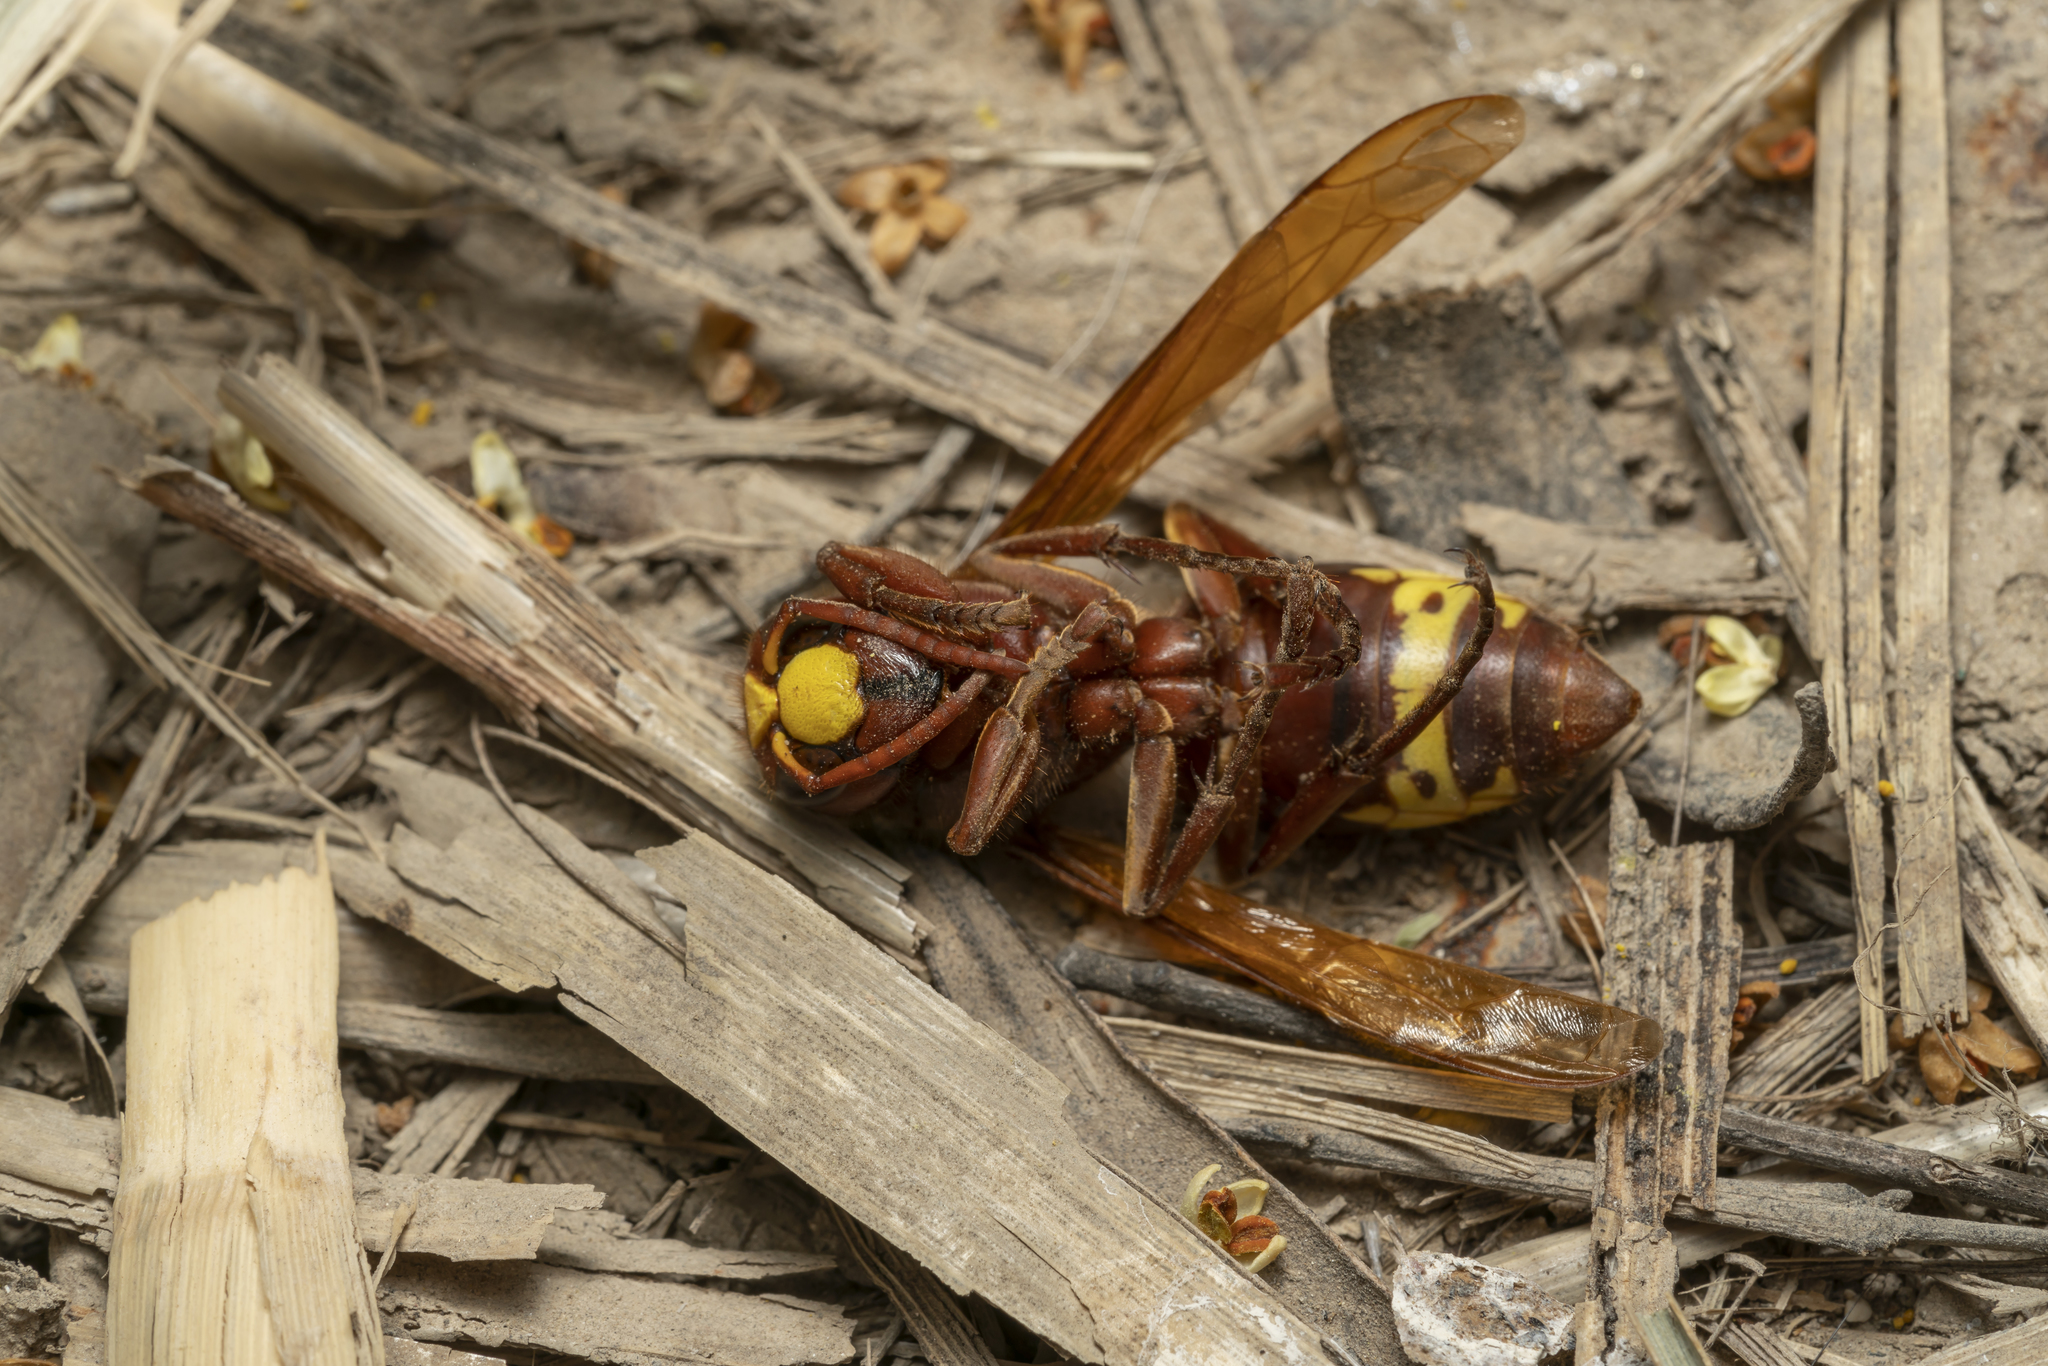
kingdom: Animalia
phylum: Arthropoda
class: Insecta
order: Hymenoptera
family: Vespidae
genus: Vespa
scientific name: Vespa orientalis
